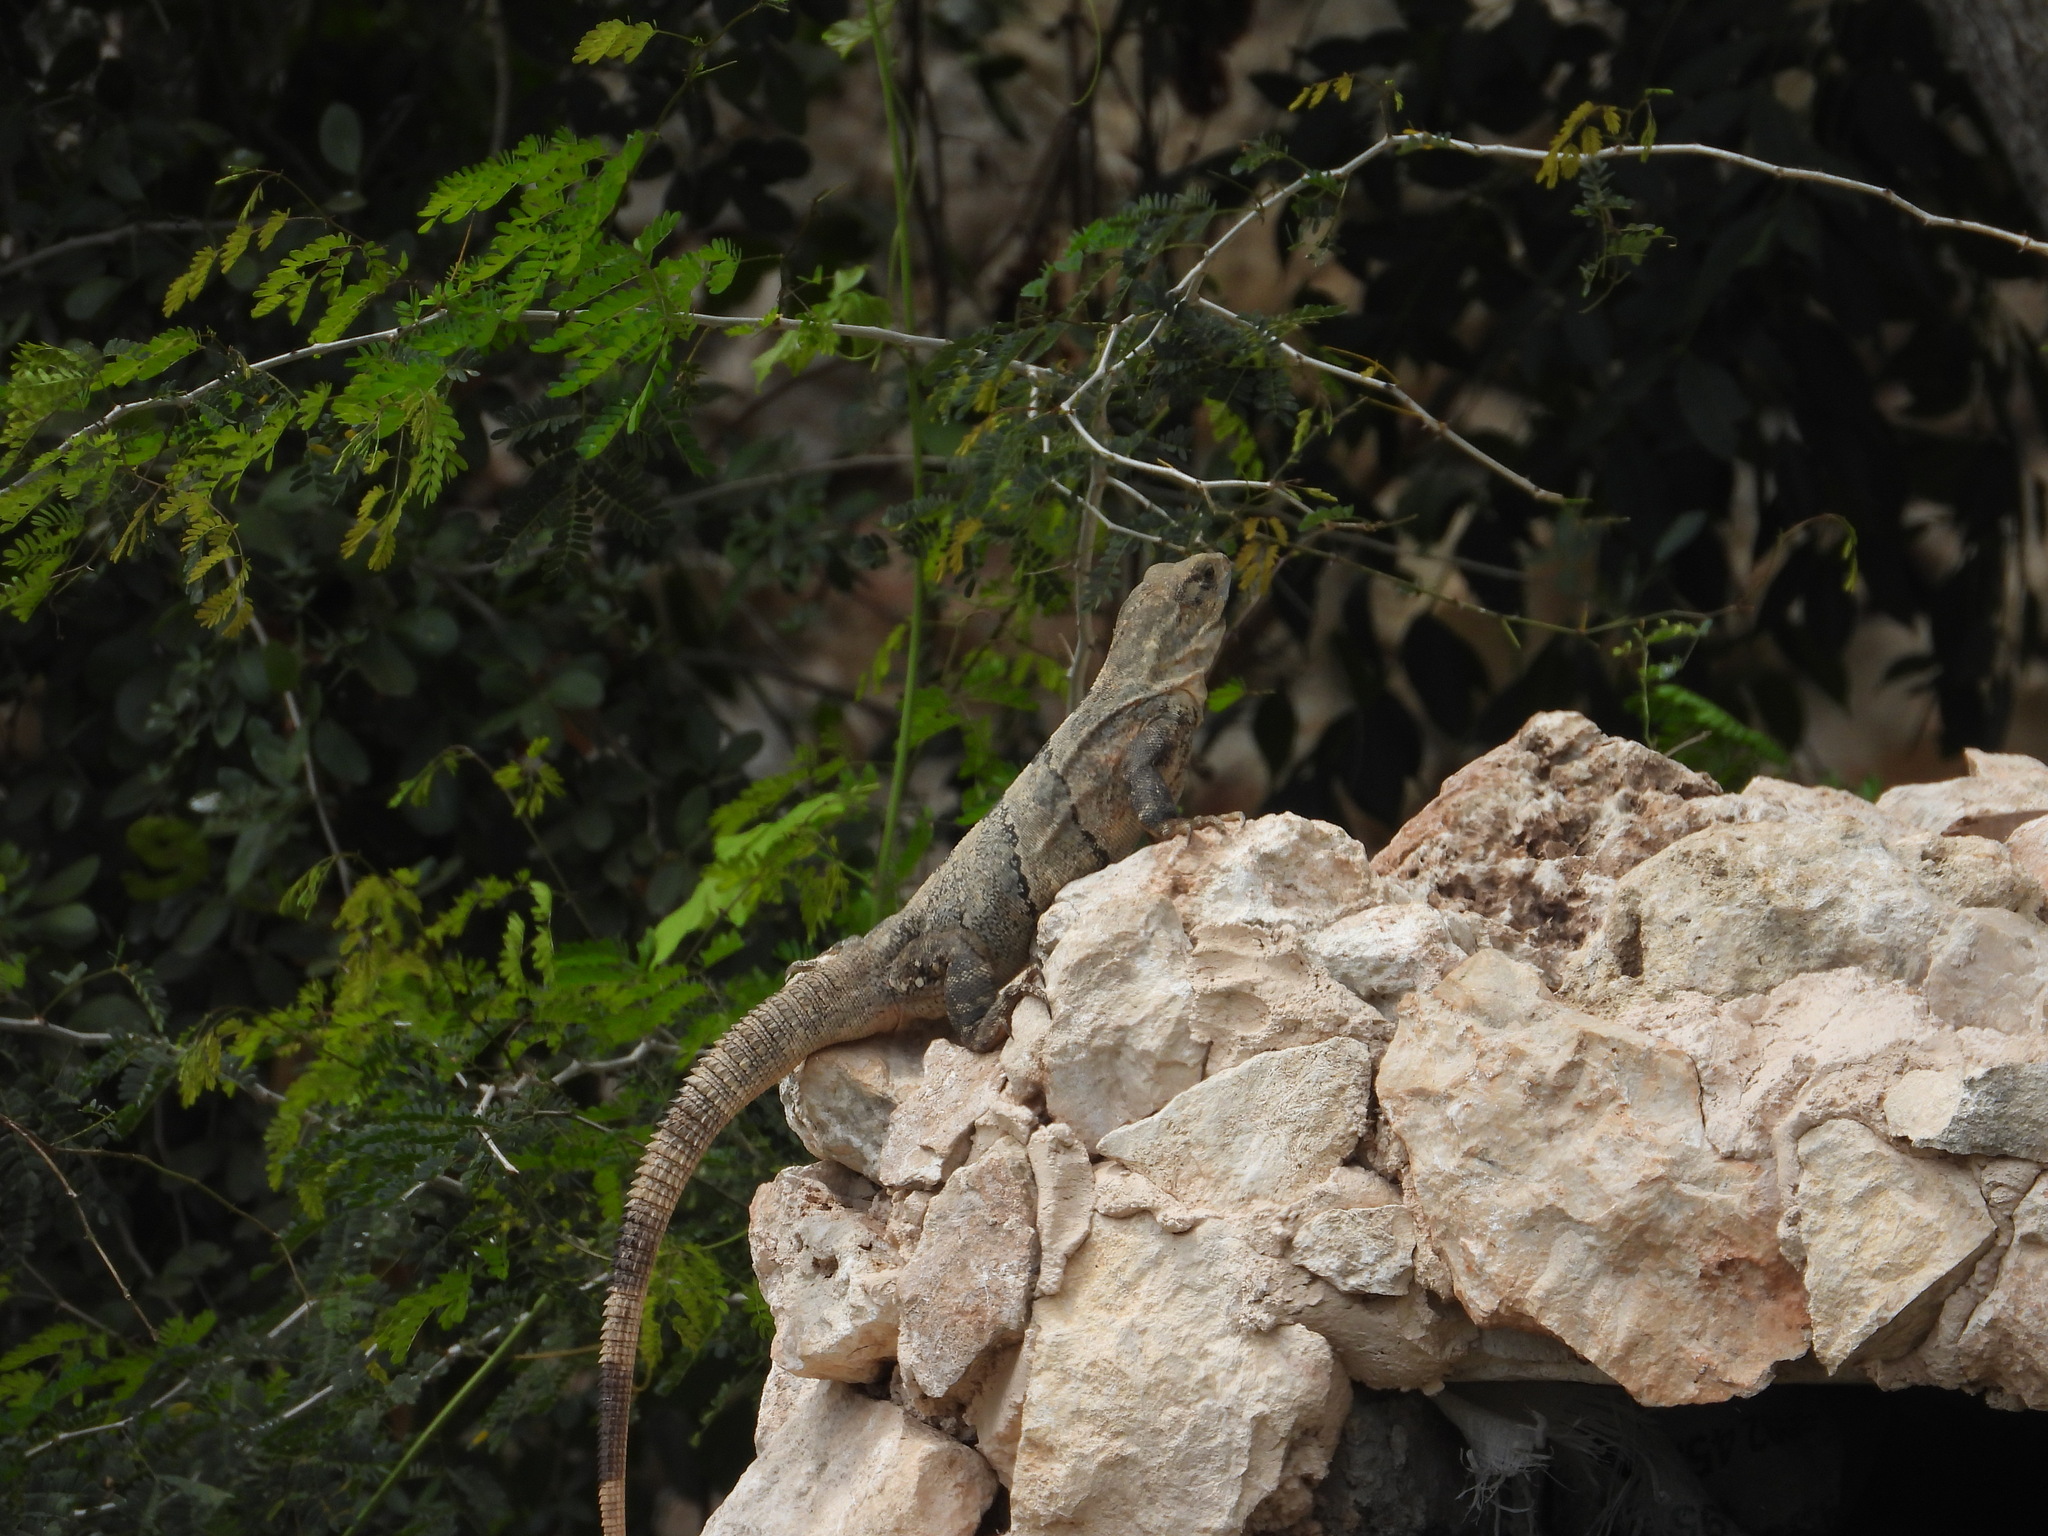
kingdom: Animalia
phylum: Chordata
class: Squamata
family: Iguanidae
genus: Ctenosaura
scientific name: Ctenosaura similis
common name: Black spiny-tailed iguana
